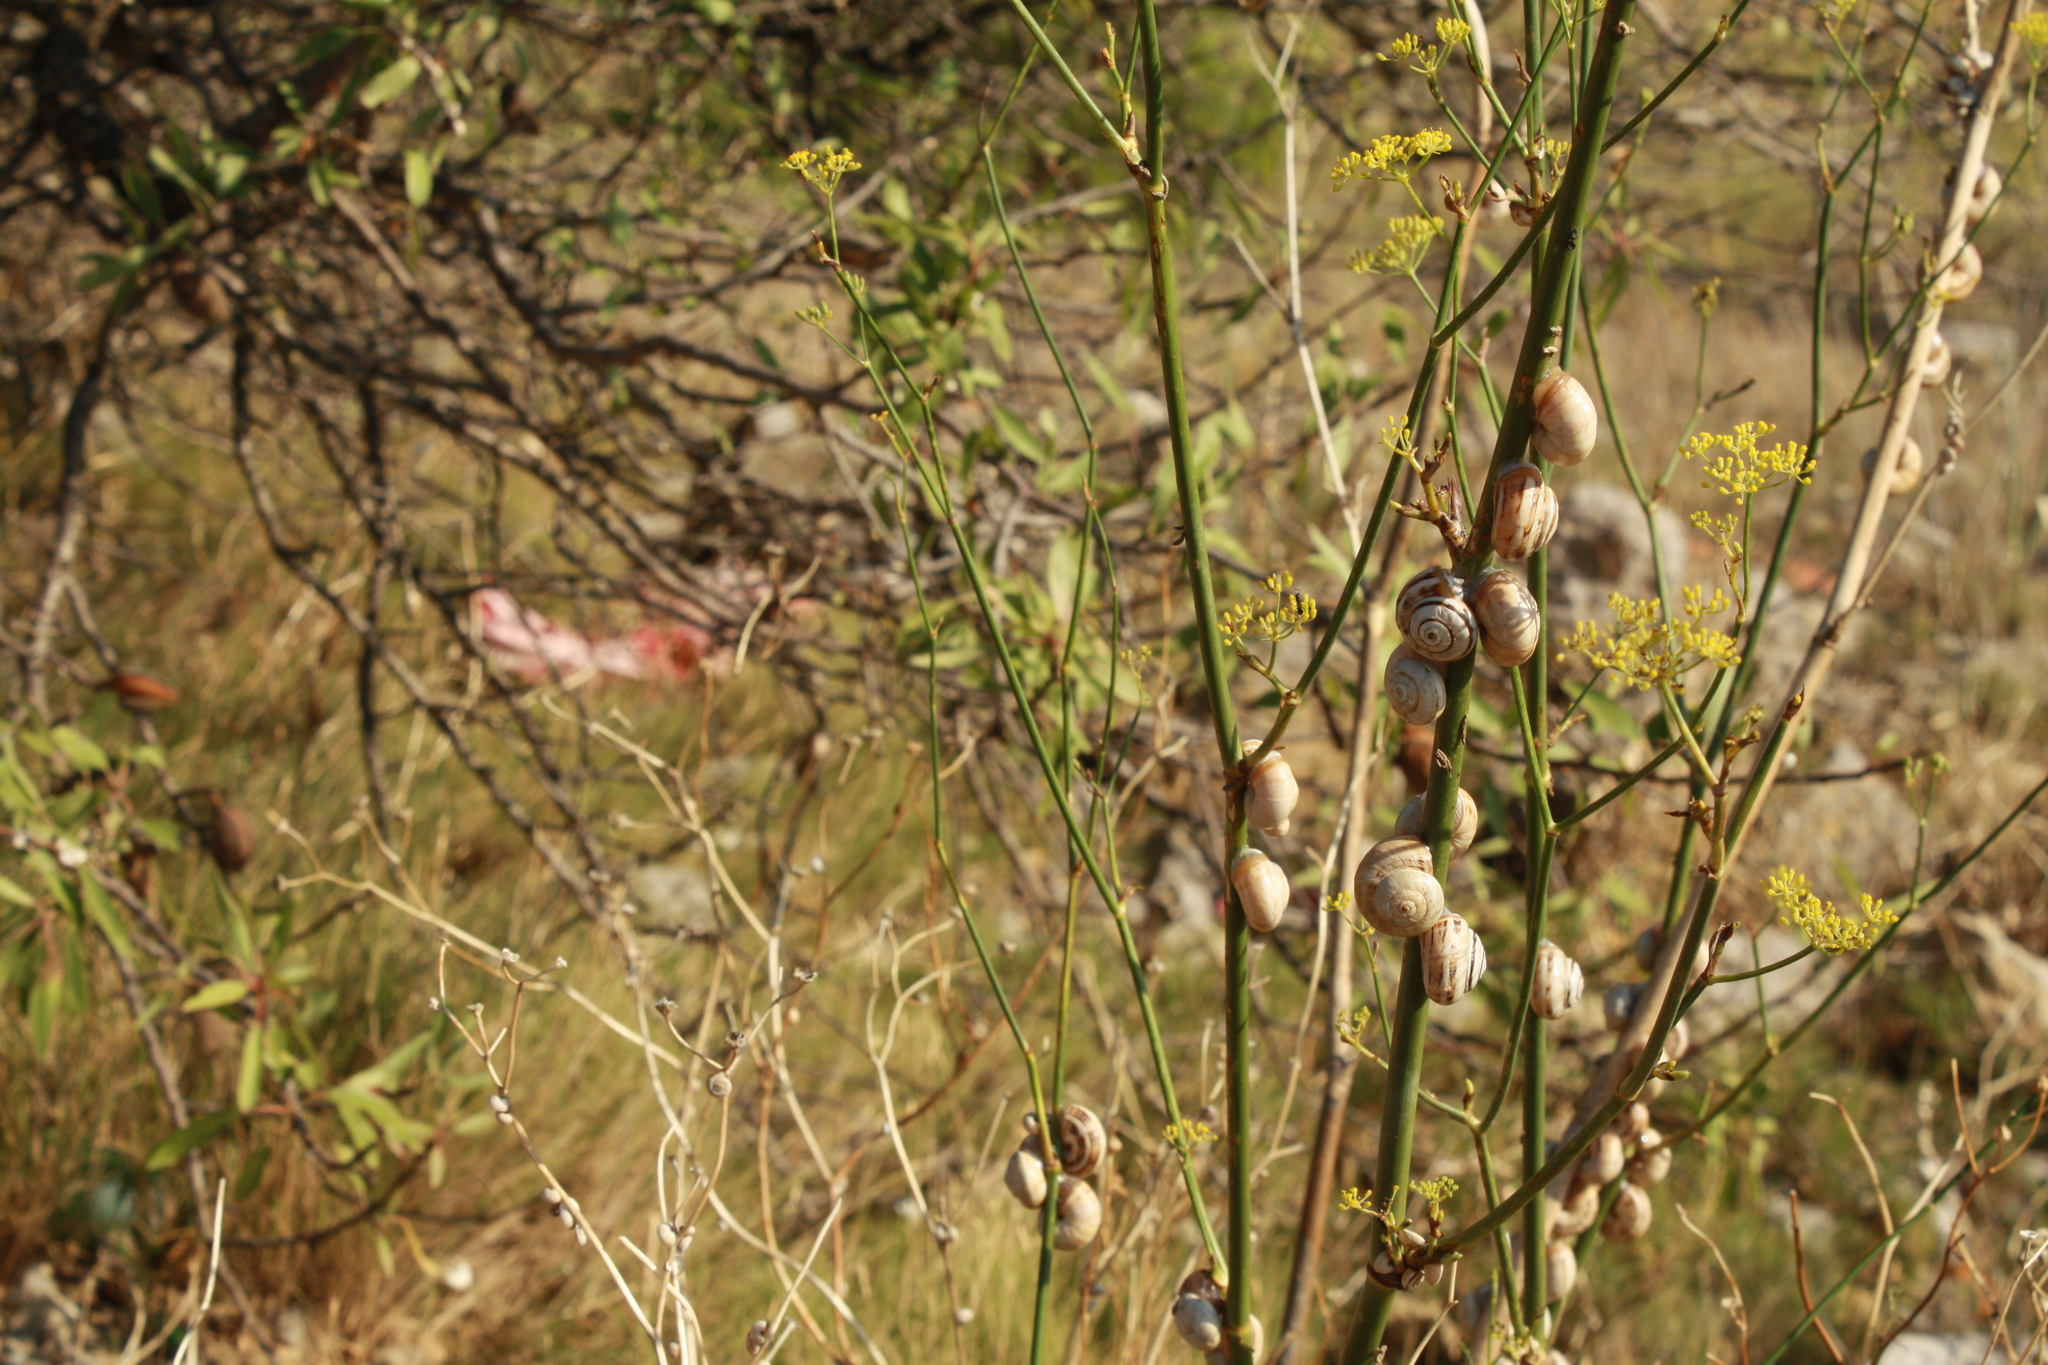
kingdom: Animalia
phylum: Mollusca
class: Gastropoda
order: Stylommatophora
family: Helicidae
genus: Theba
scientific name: Theba pisana
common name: White snail
